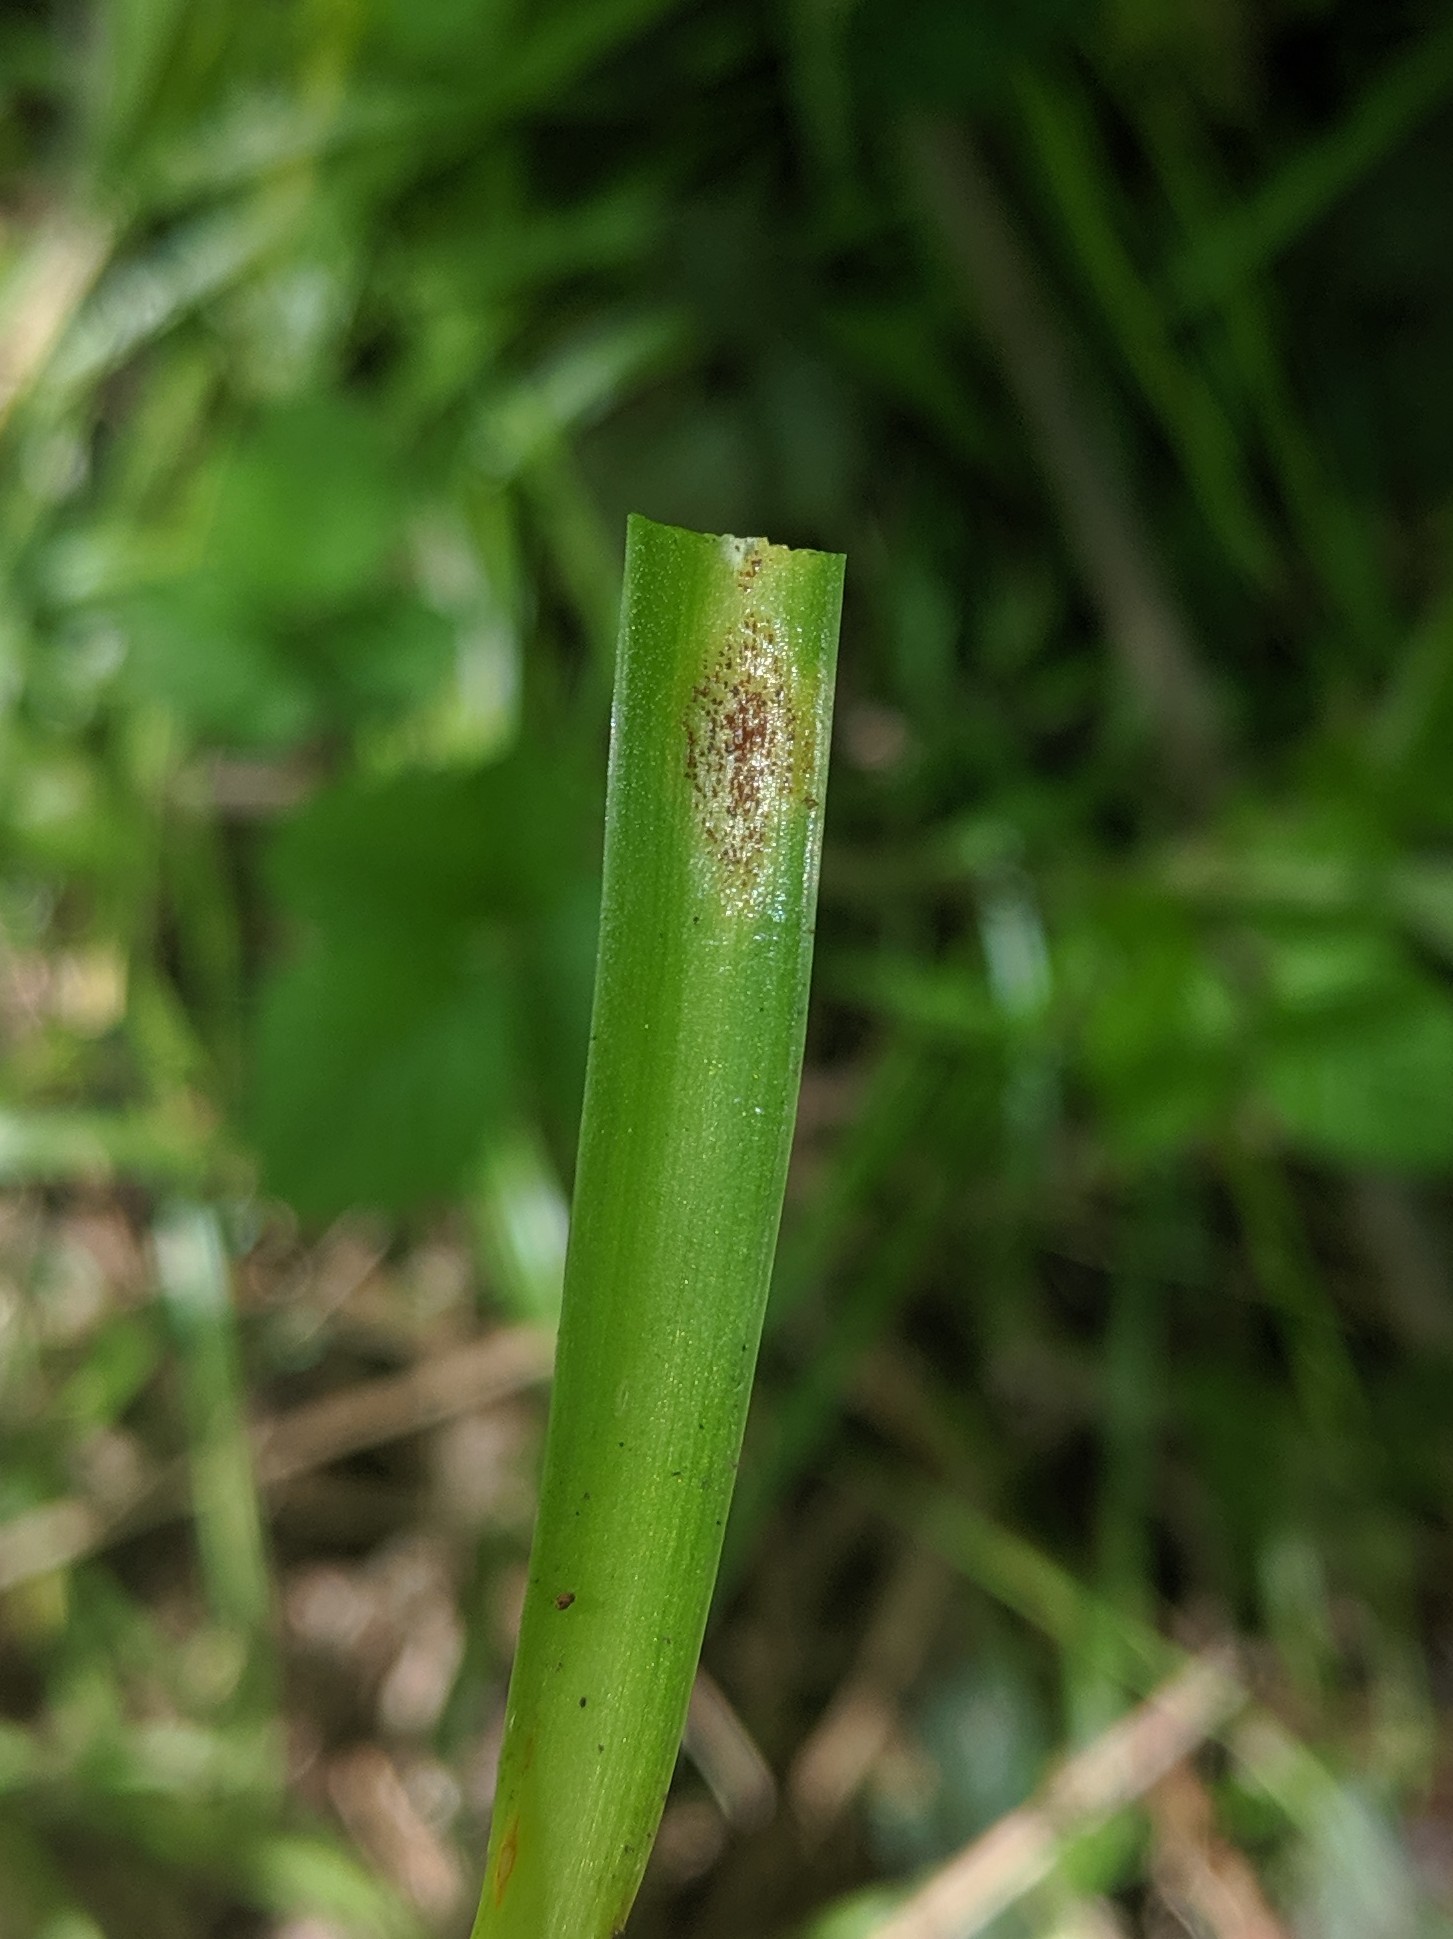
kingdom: Fungi
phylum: Basidiomycota
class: Pucciniomycetes
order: Pucciniales
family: Pucciniaceae
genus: Uromyces
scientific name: Uromyces hyacinthi
